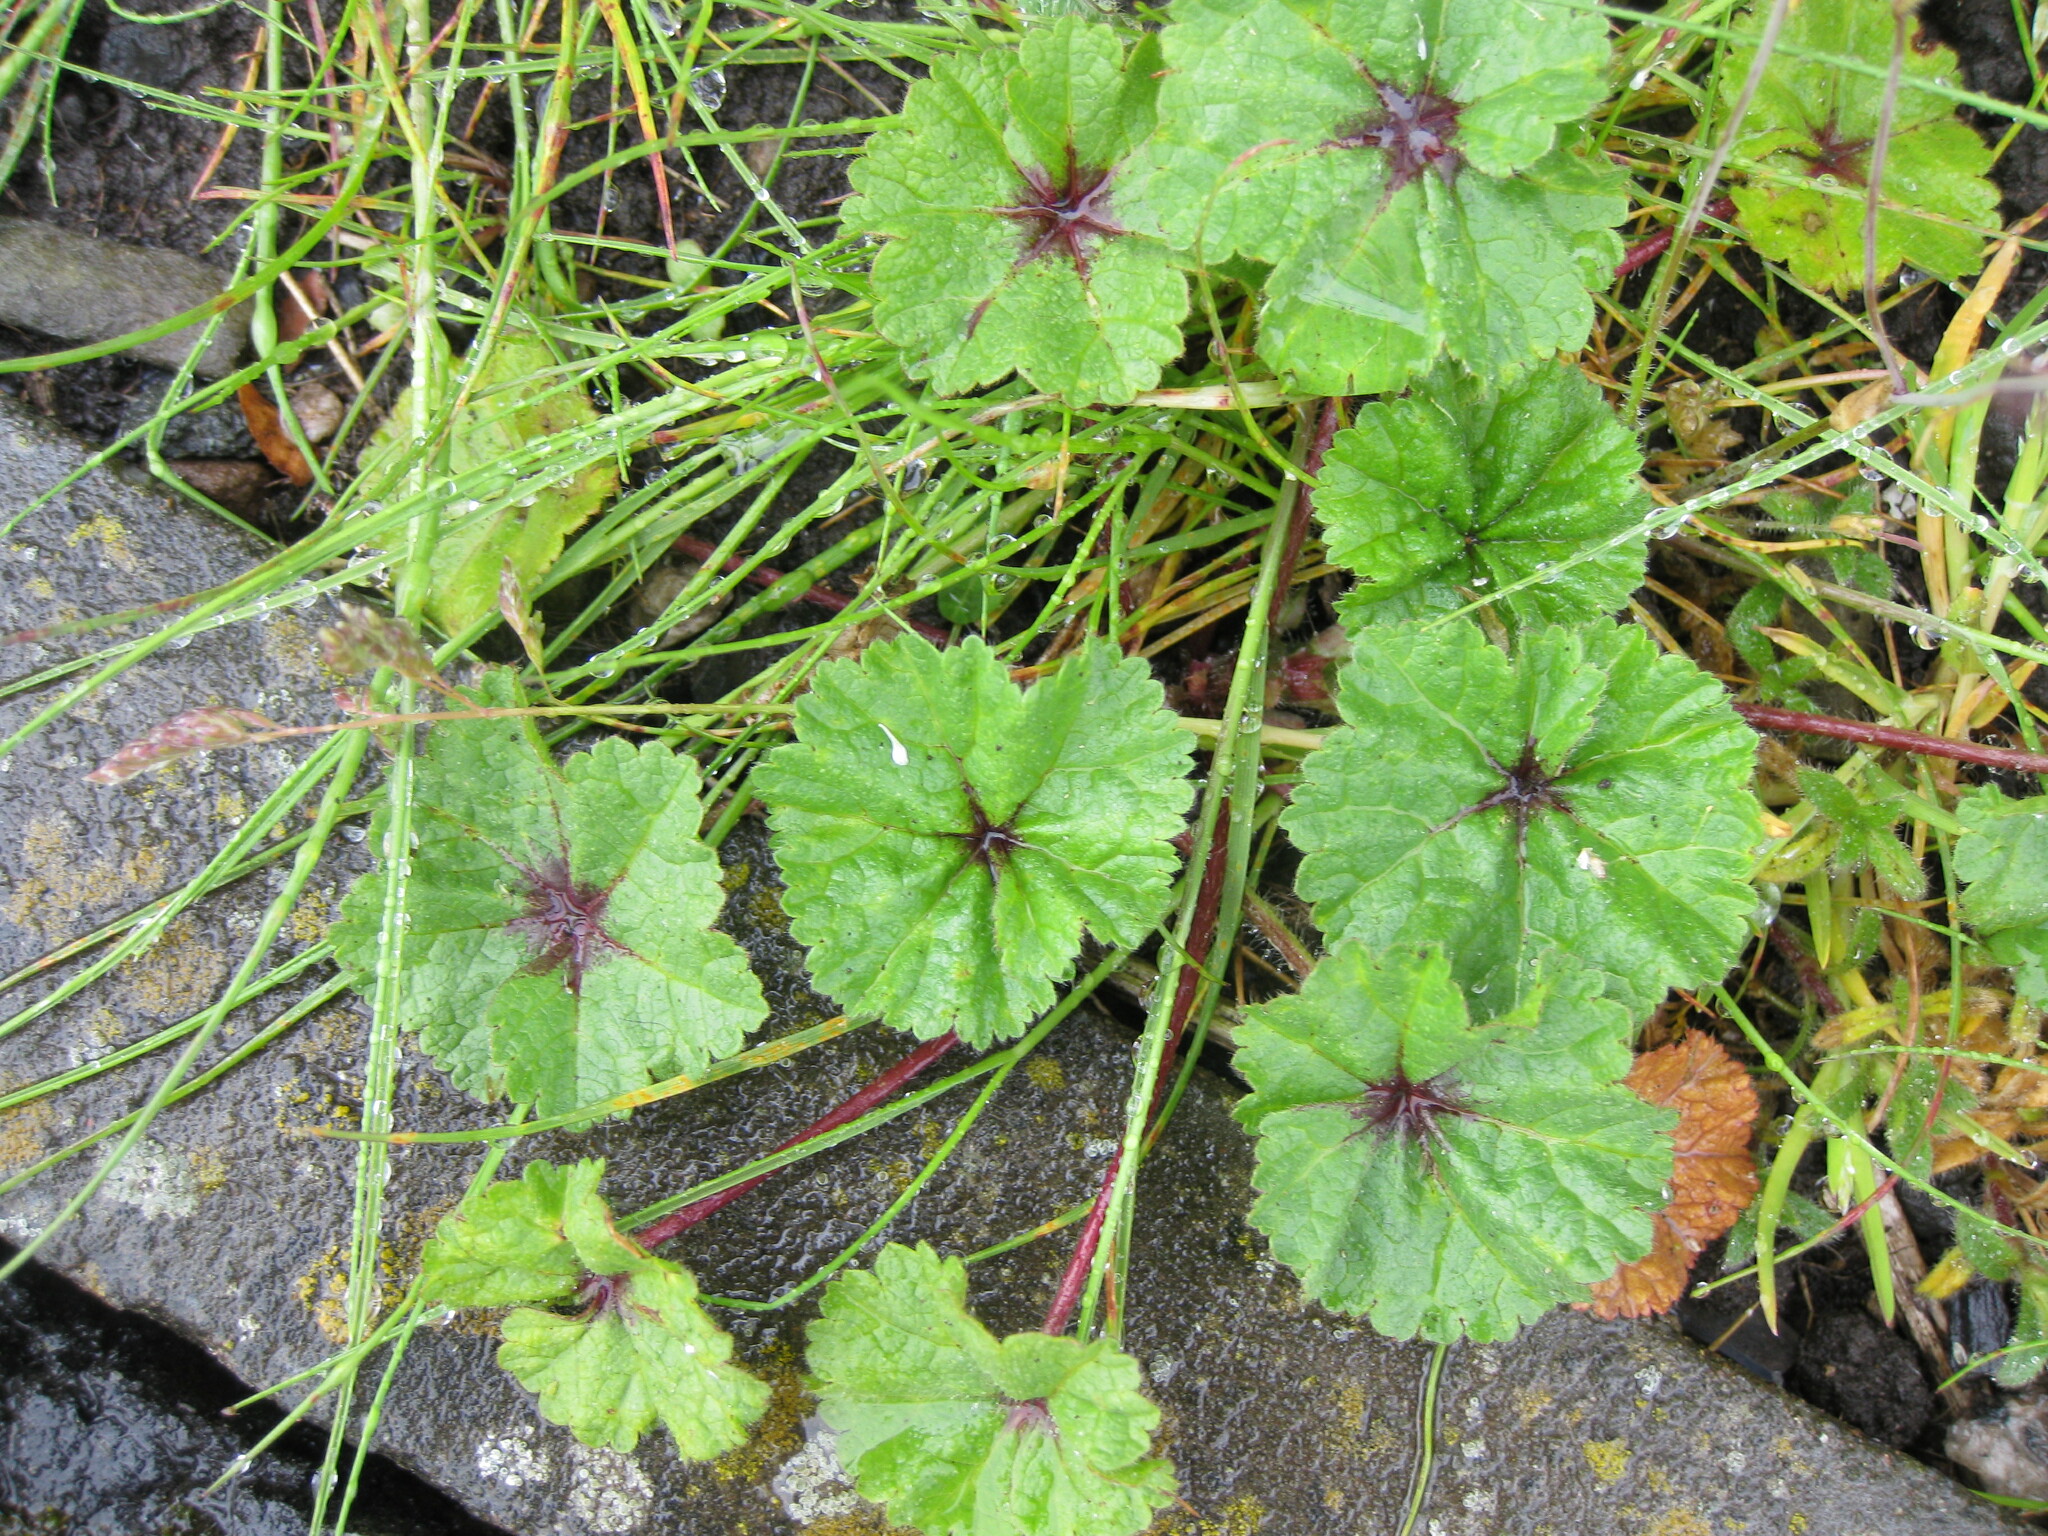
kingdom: Plantae
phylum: Tracheophyta
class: Magnoliopsida
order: Malvales
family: Malvaceae
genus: Malva
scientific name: Malva sylvestris
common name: Common mallow
